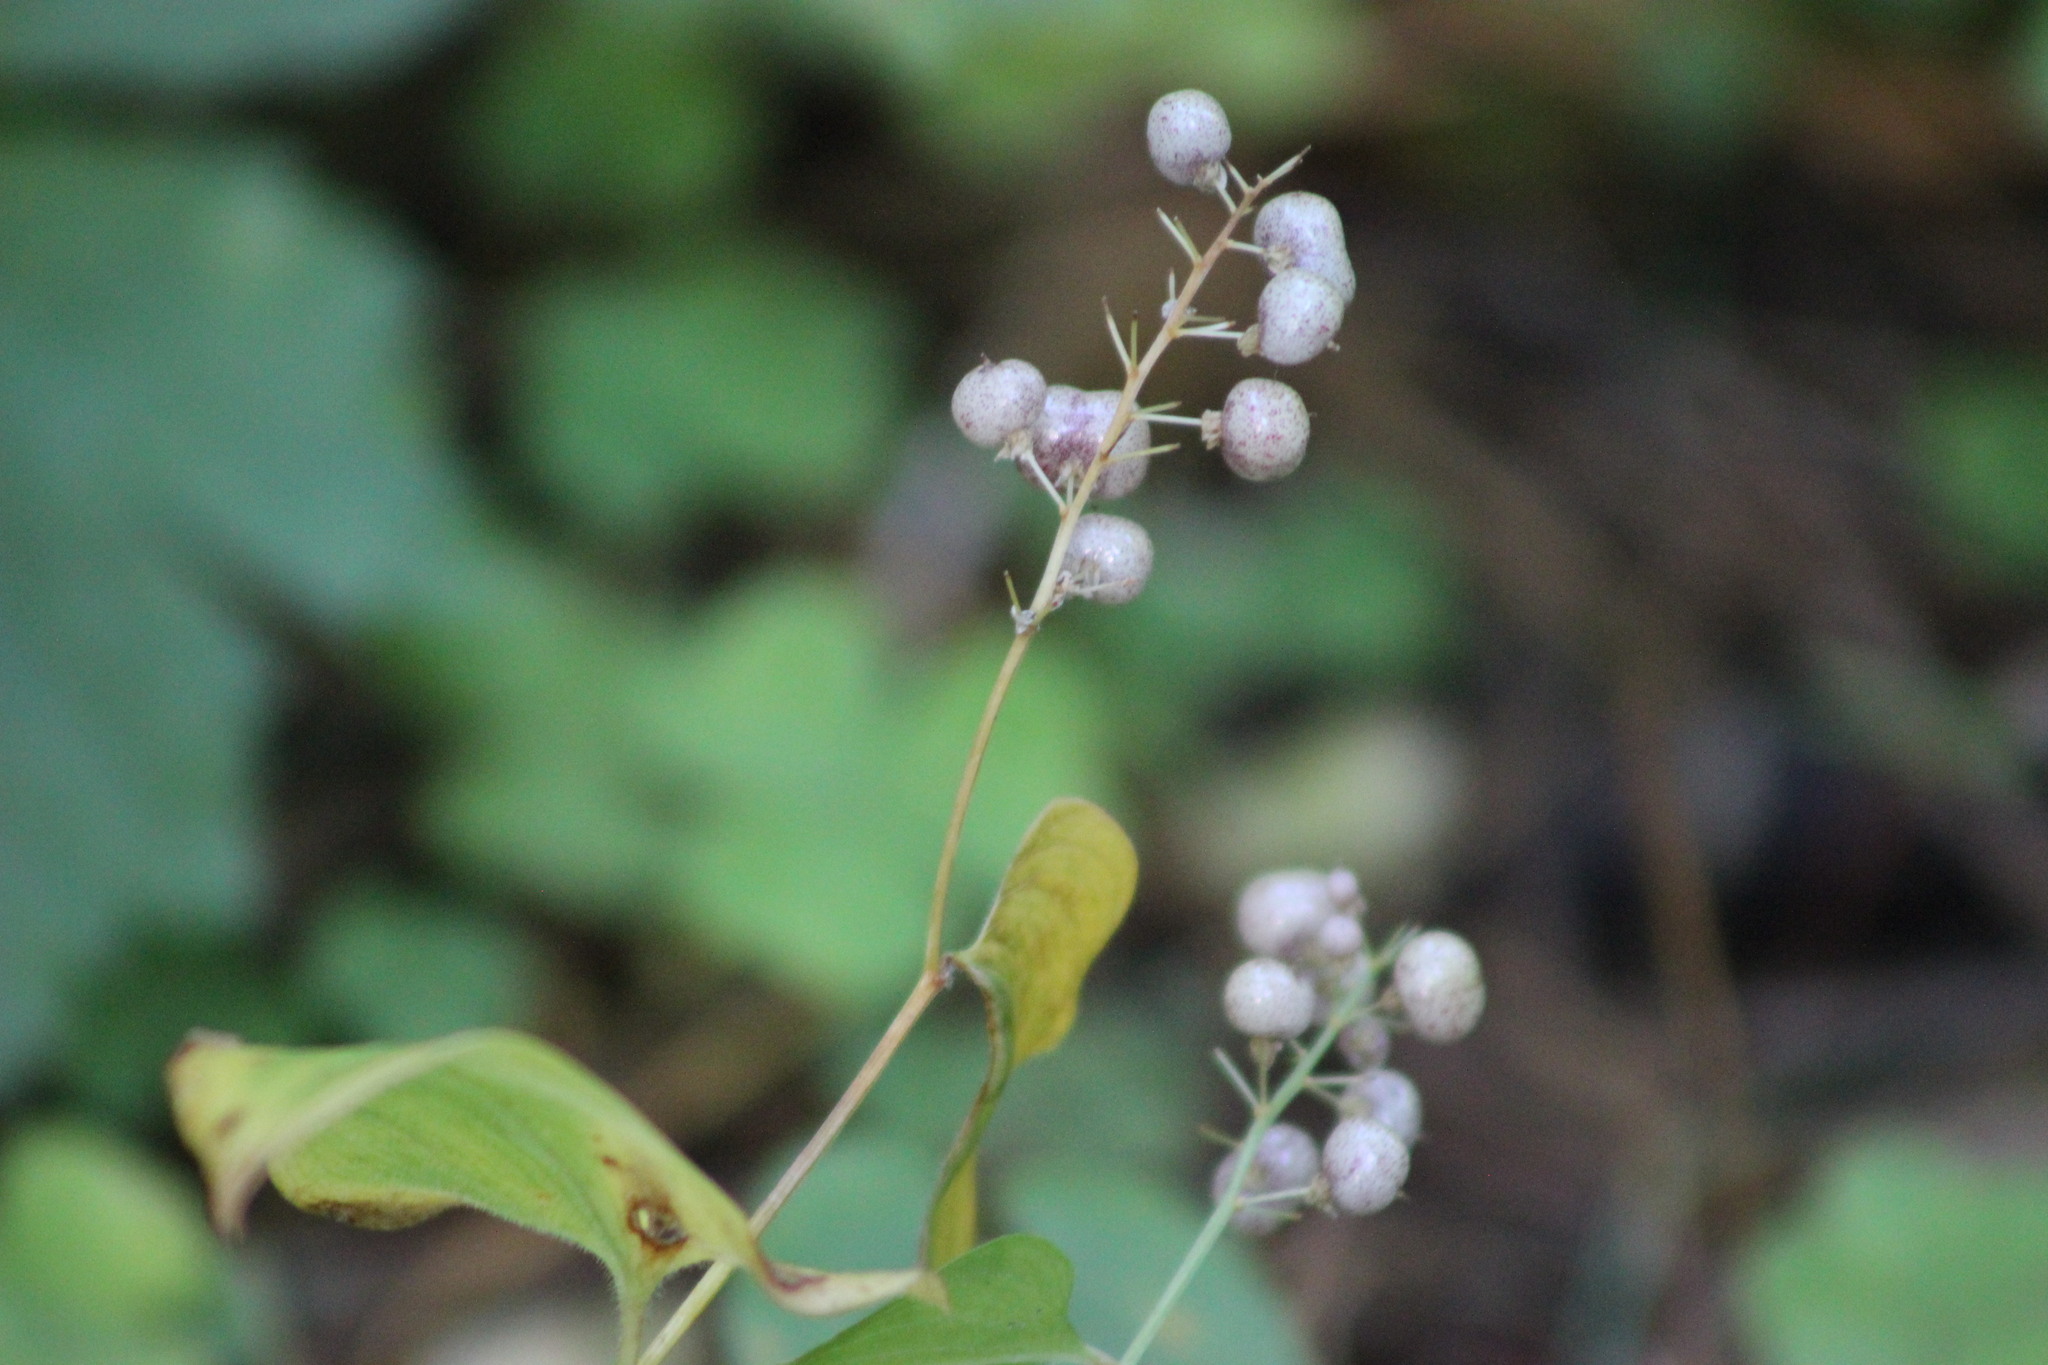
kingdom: Plantae
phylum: Tracheophyta
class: Liliopsida
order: Asparagales
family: Asparagaceae
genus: Maianthemum
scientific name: Maianthemum bifolium
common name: May lily
